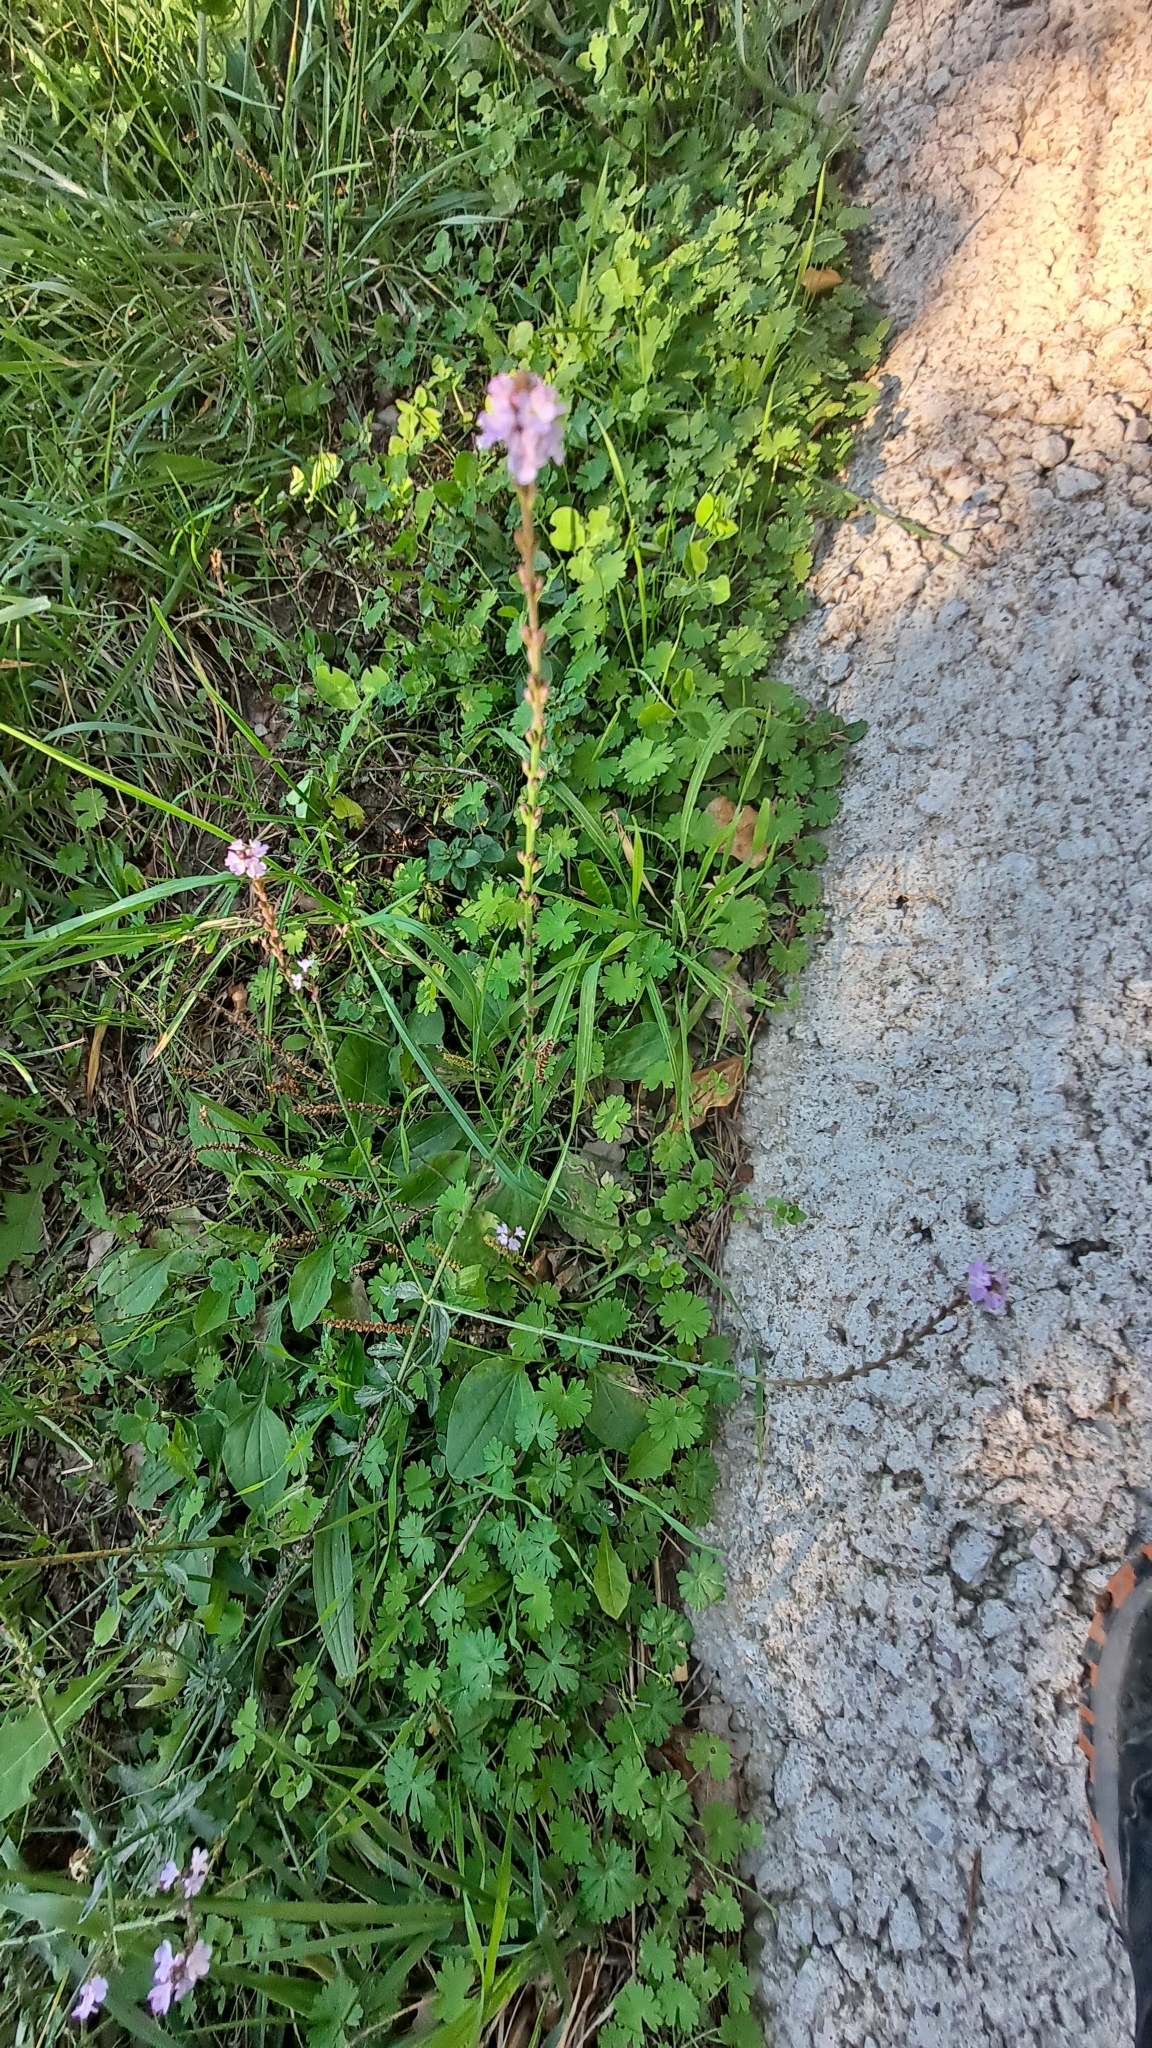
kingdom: Plantae
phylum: Tracheophyta
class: Magnoliopsida
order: Lamiales
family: Verbenaceae
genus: Verbena
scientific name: Verbena officinalis
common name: Vervain
